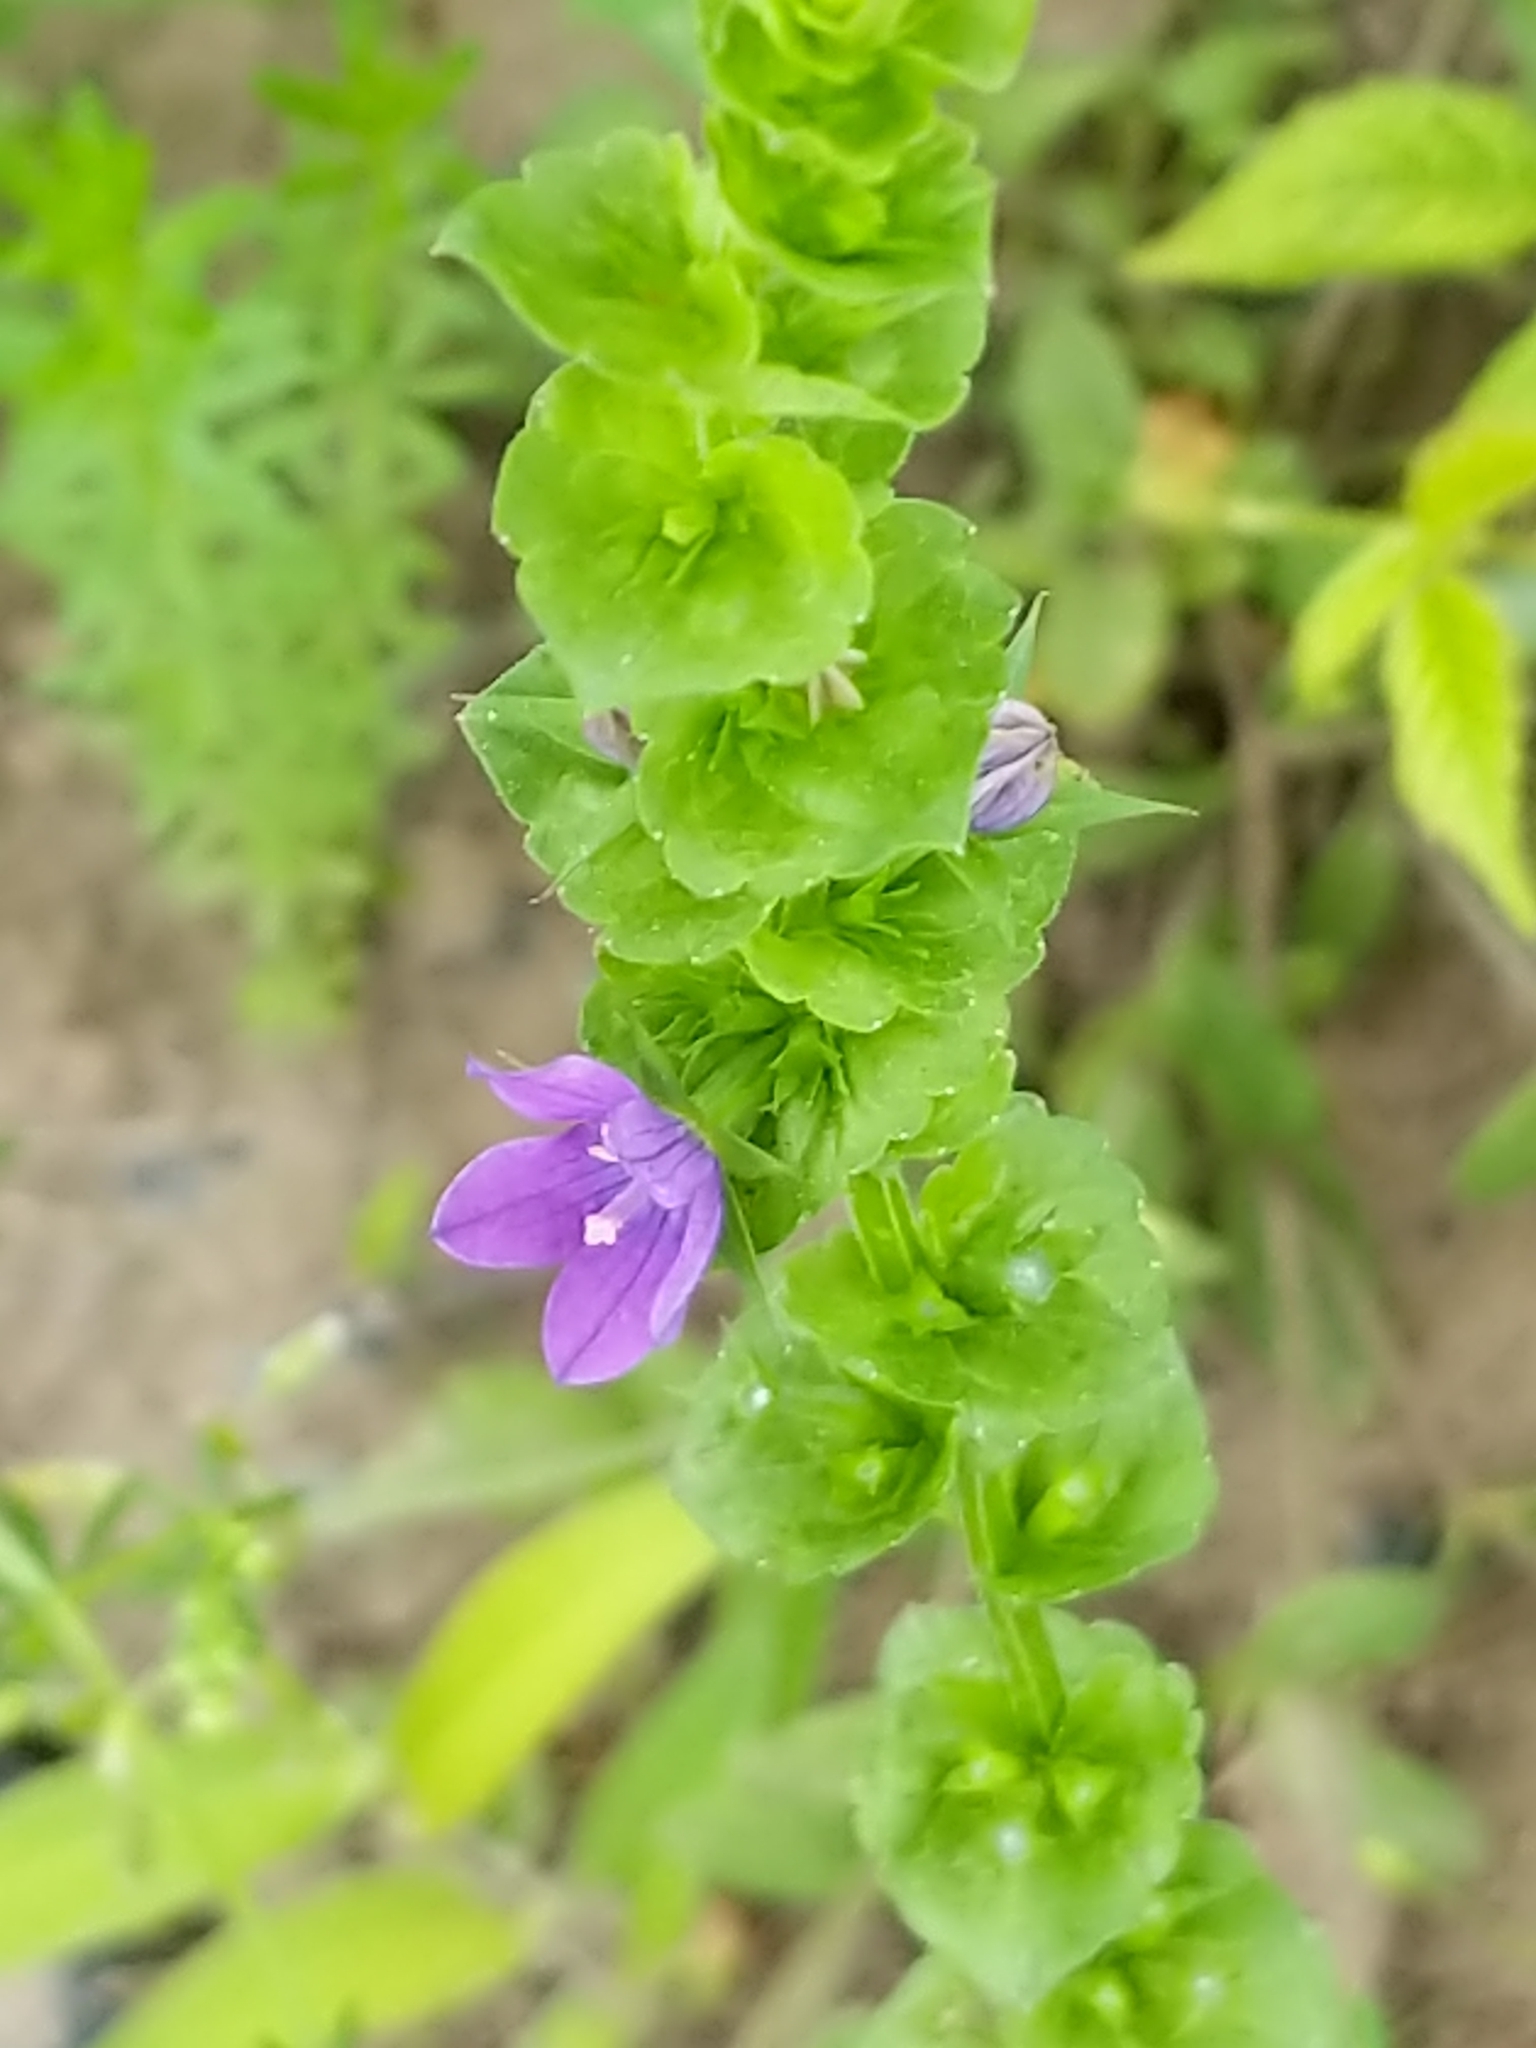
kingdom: Plantae
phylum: Tracheophyta
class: Magnoliopsida
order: Asterales
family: Campanulaceae
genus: Triodanis
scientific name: Triodanis perfoliata
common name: Clasping venus' looking-glass
